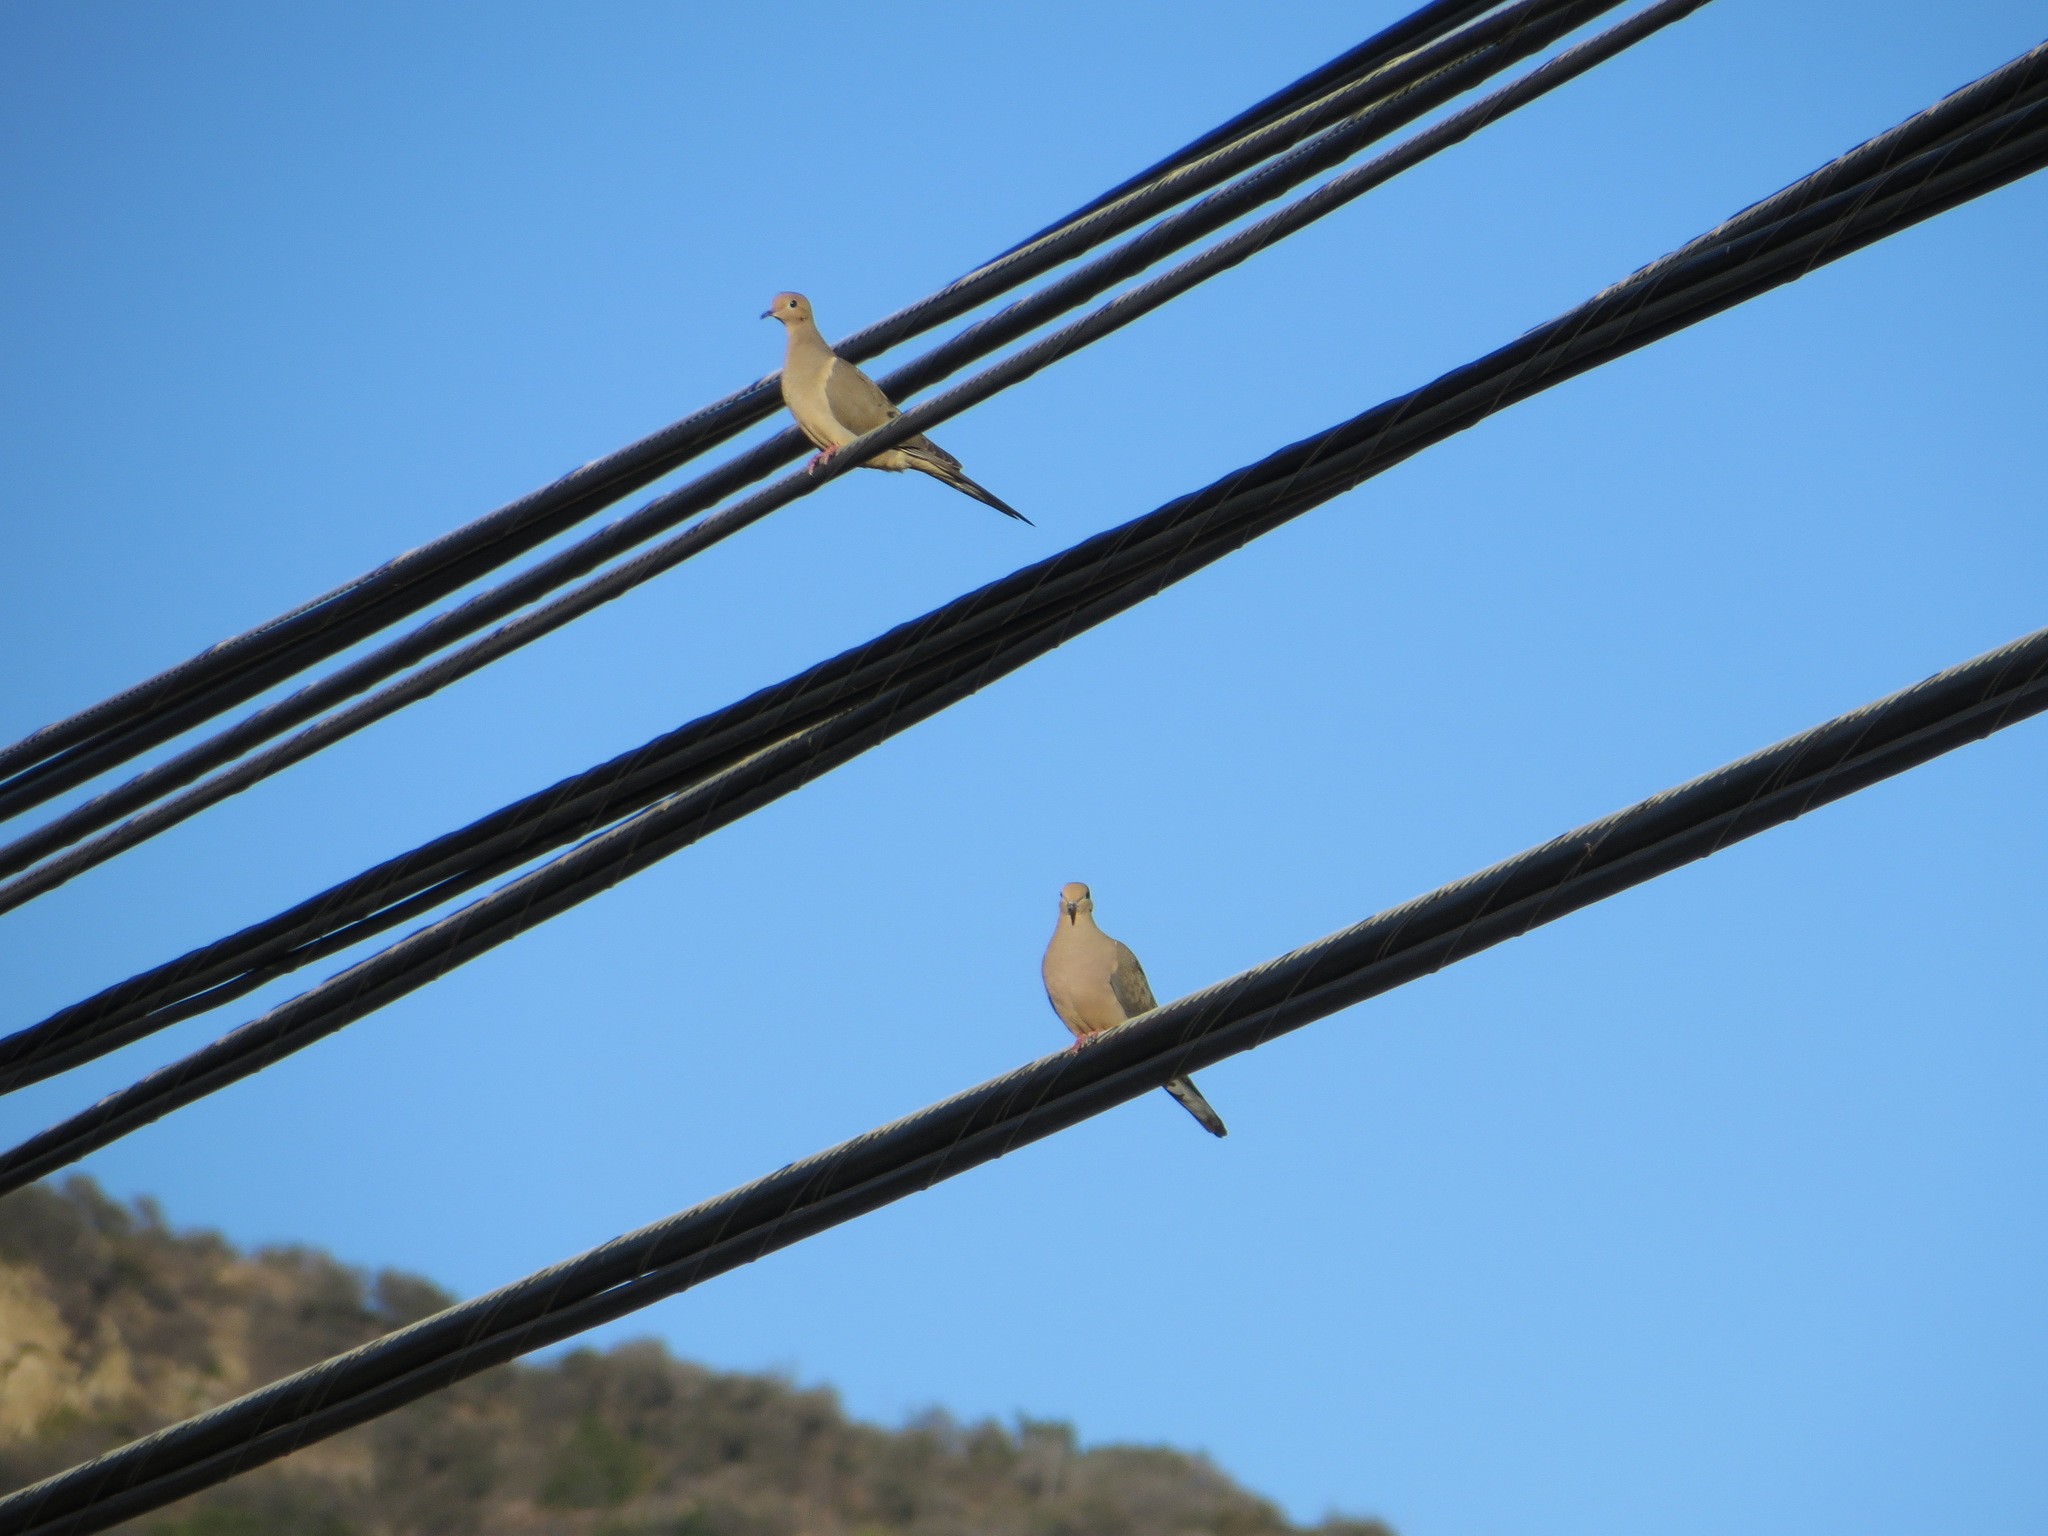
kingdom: Animalia
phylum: Chordata
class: Aves
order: Columbiformes
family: Columbidae
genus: Zenaida
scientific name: Zenaida macroura
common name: Mourning dove
